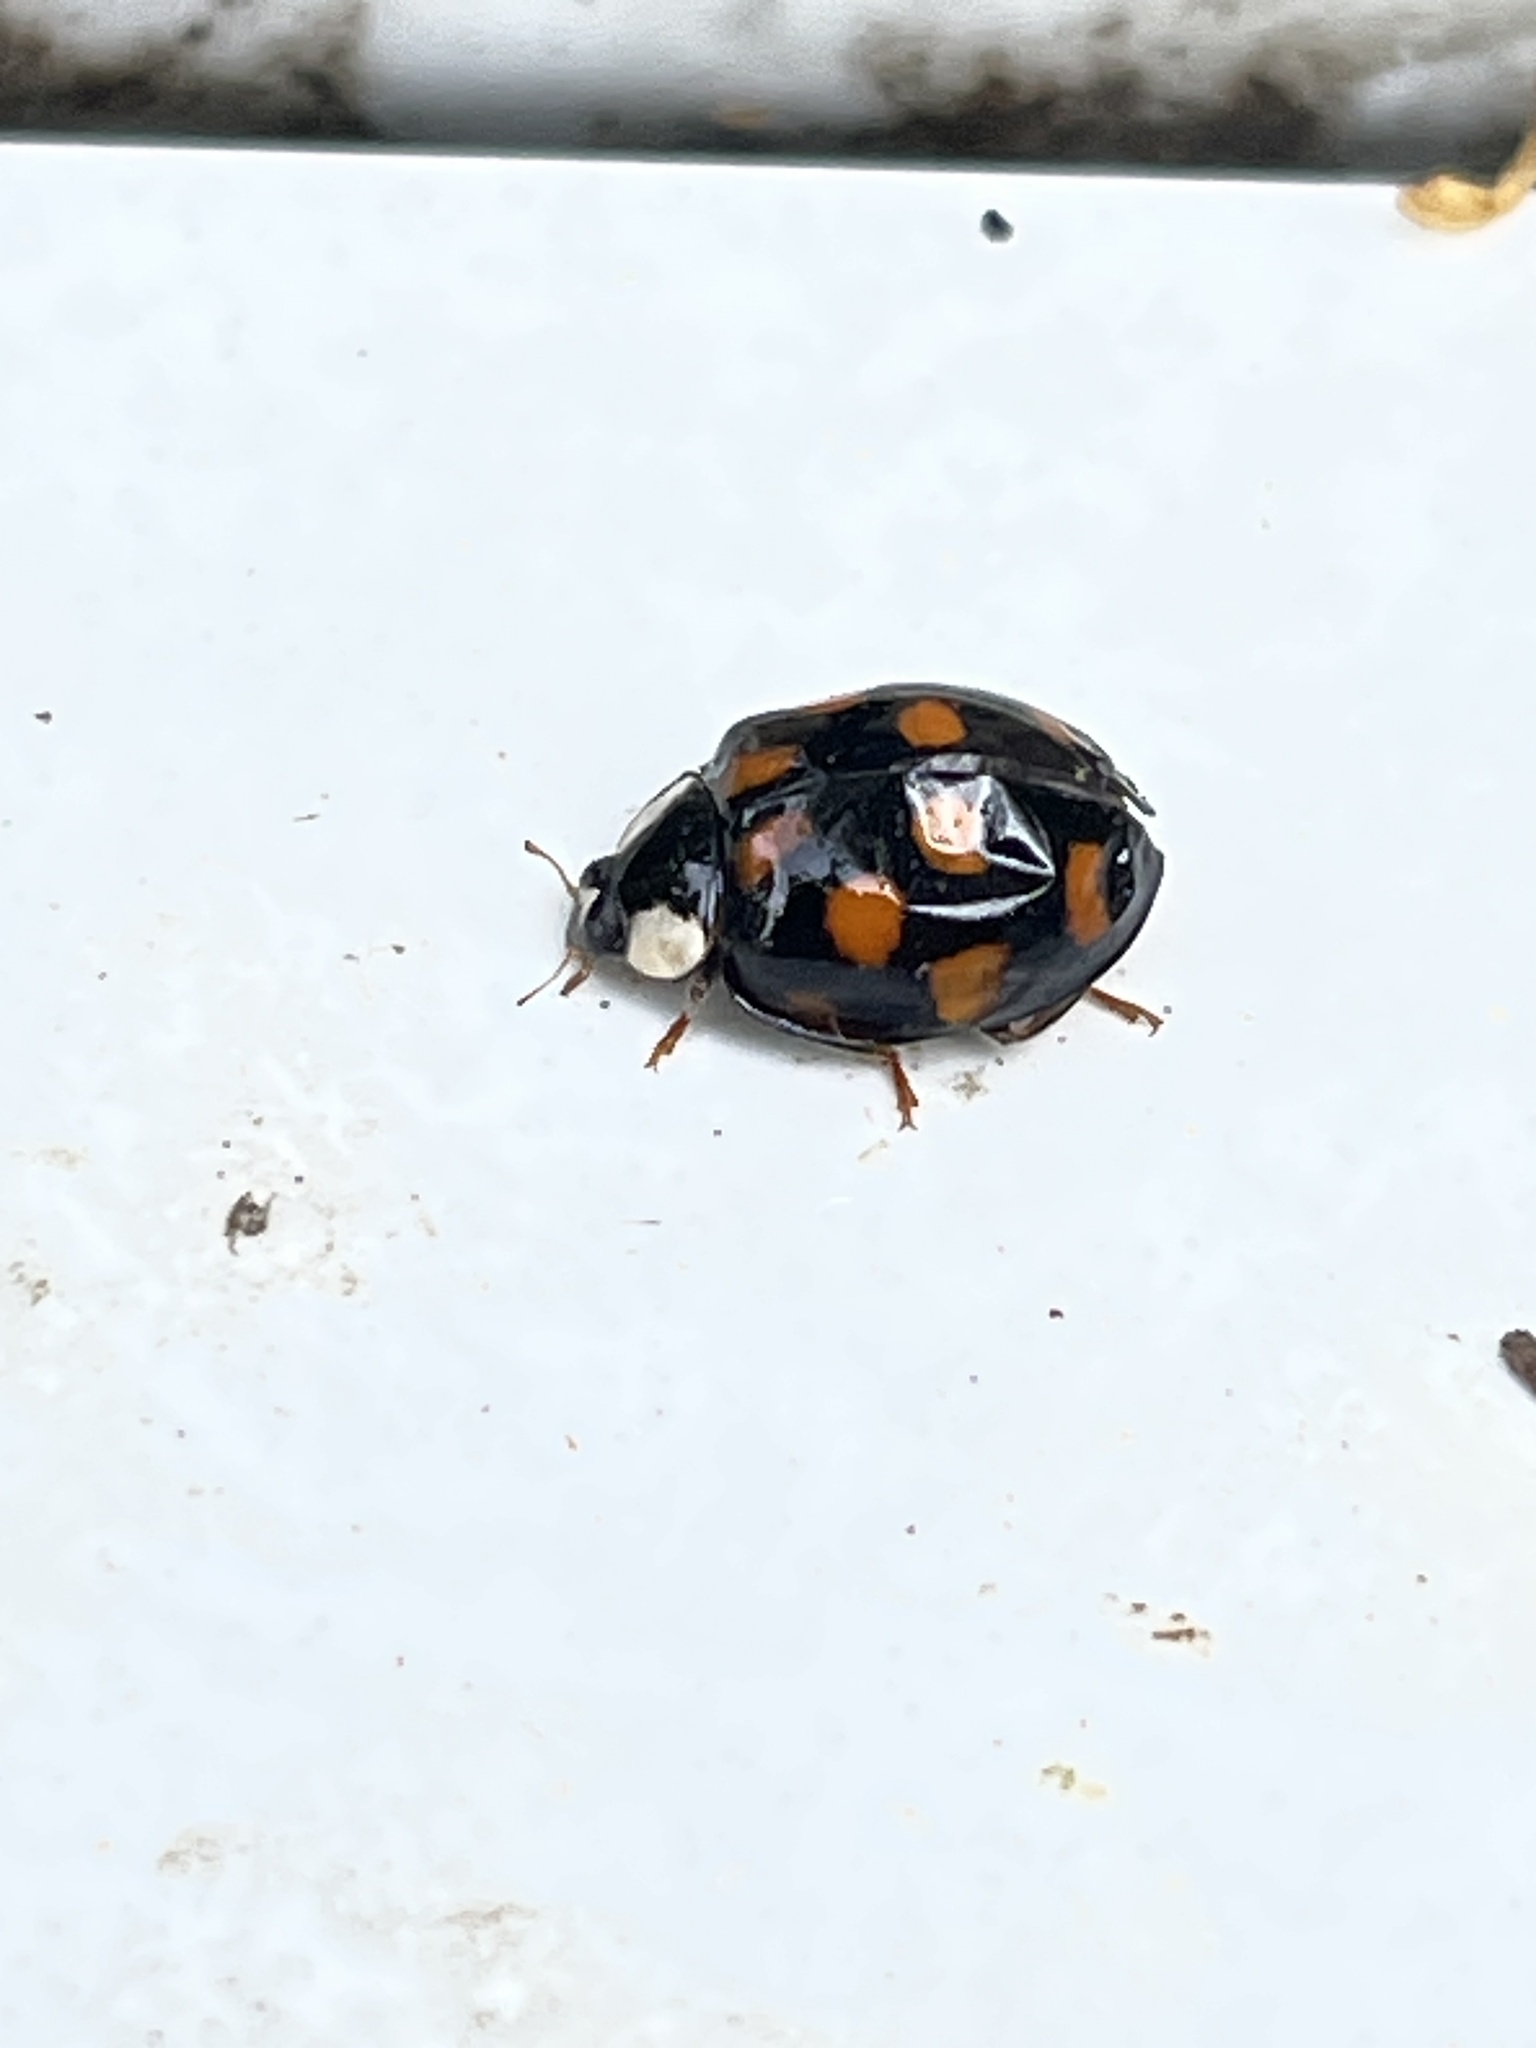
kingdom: Animalia
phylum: Arthropoda
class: Insecta
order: Coleoptera
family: Coccinellidae
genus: Harmonia
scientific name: Harmonia axyridis
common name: Harlequin ladybird
